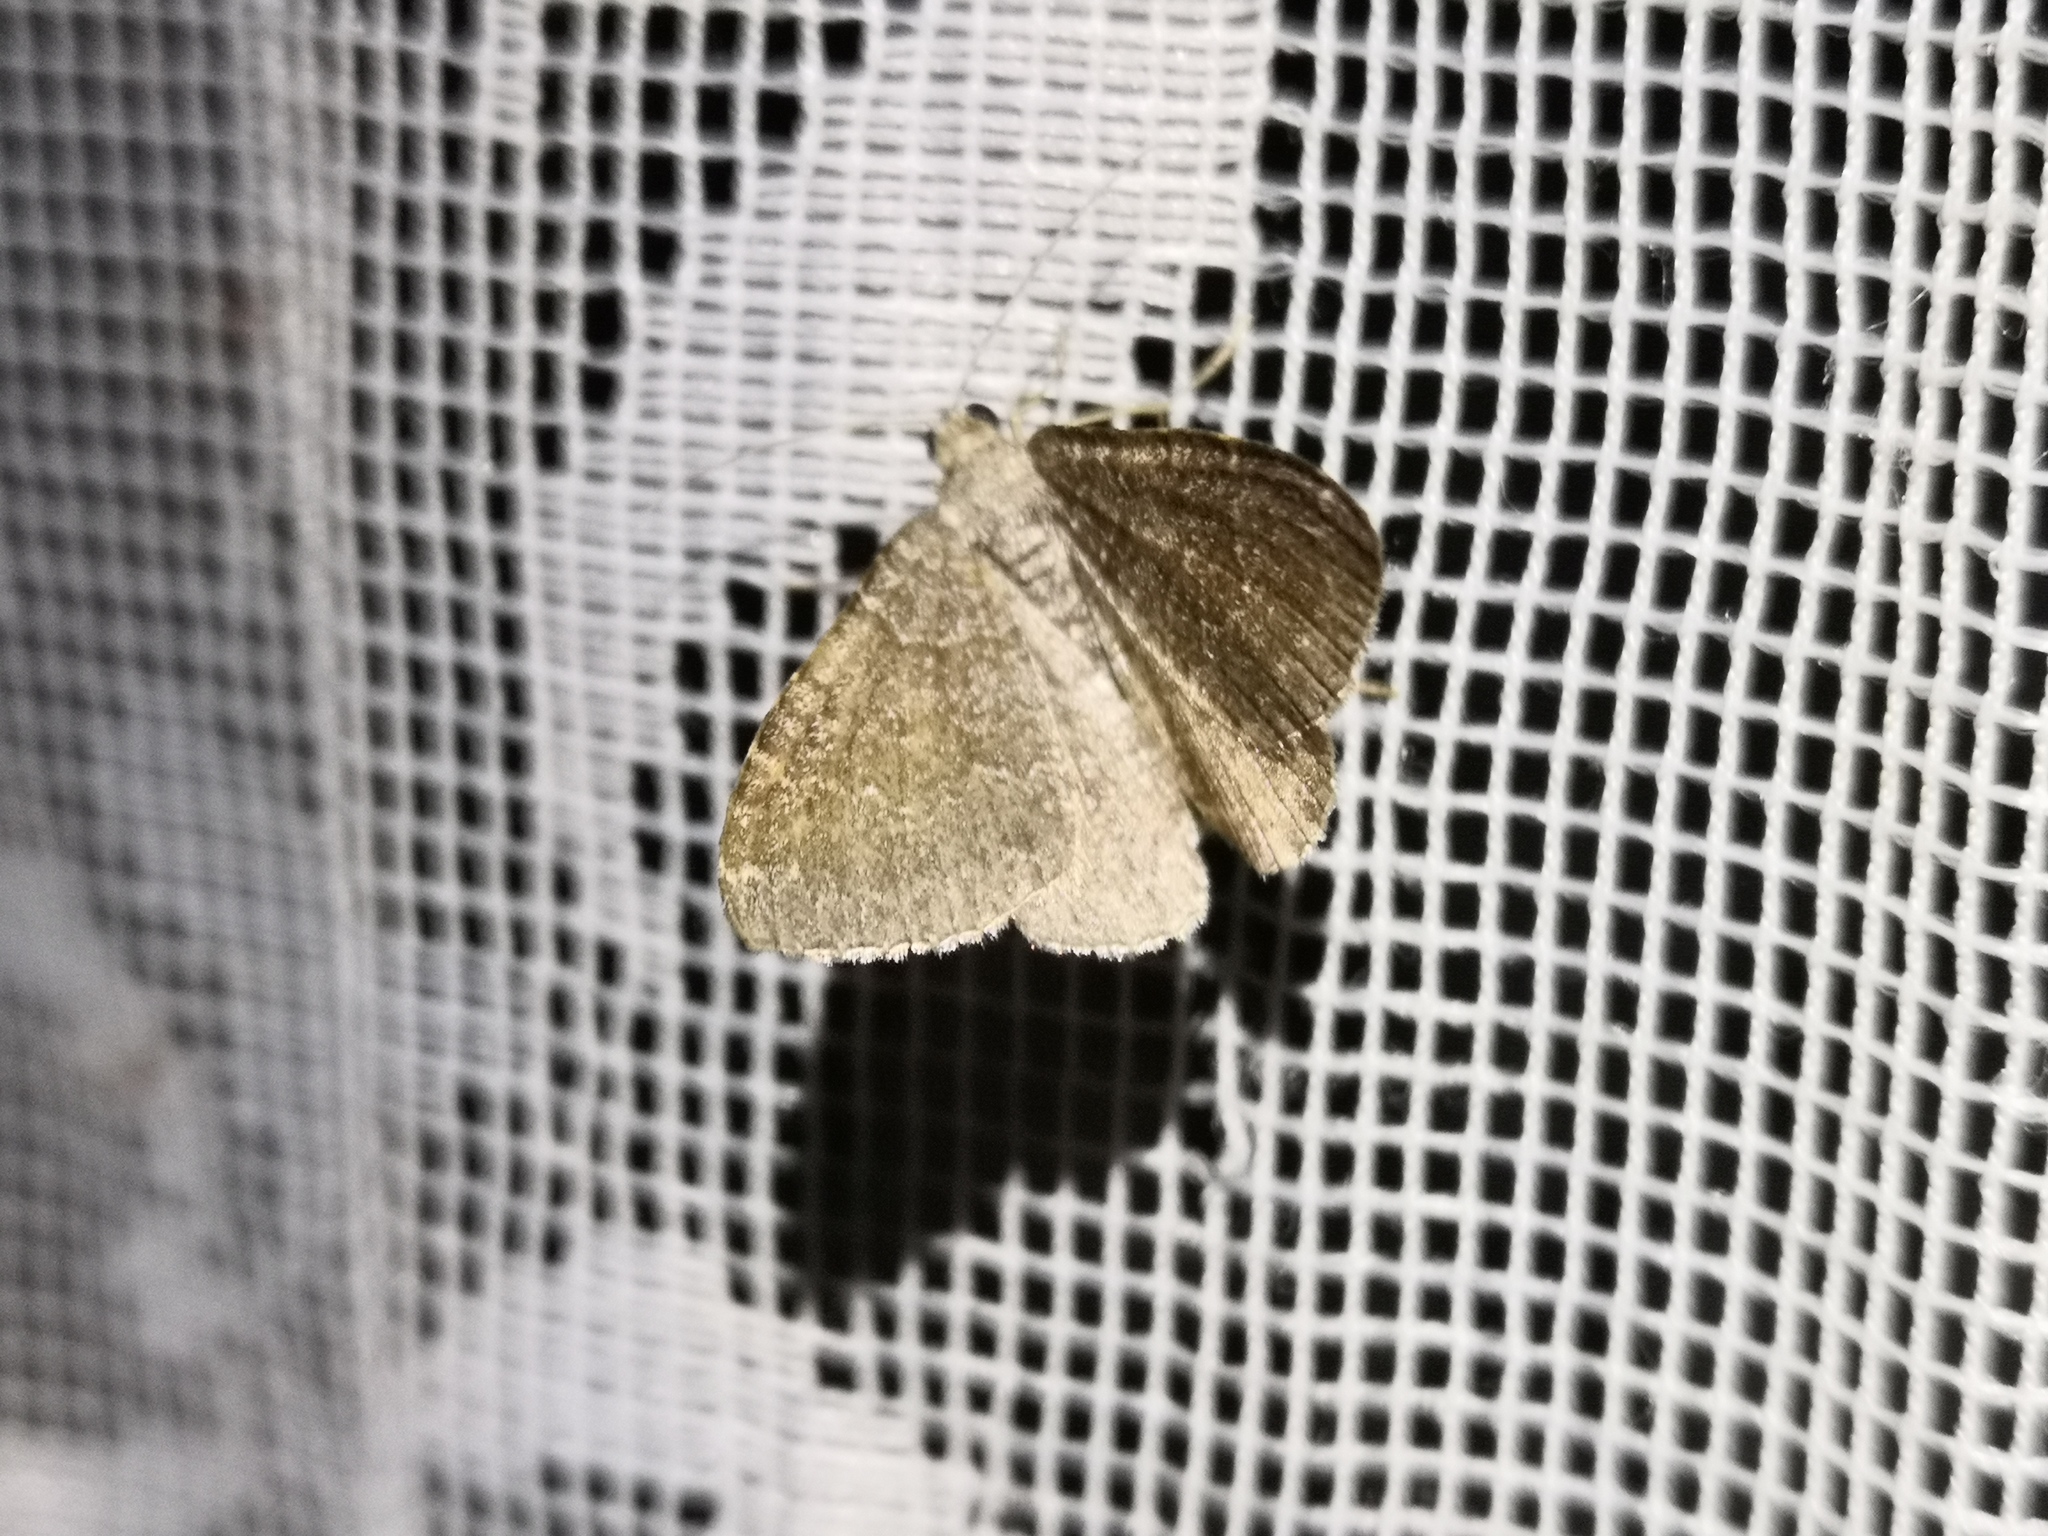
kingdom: Animalia
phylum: Arthropoda
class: Insecta
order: Lepidoptera
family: Geometridae
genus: Cataclysme
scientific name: Cataclysme riguata
